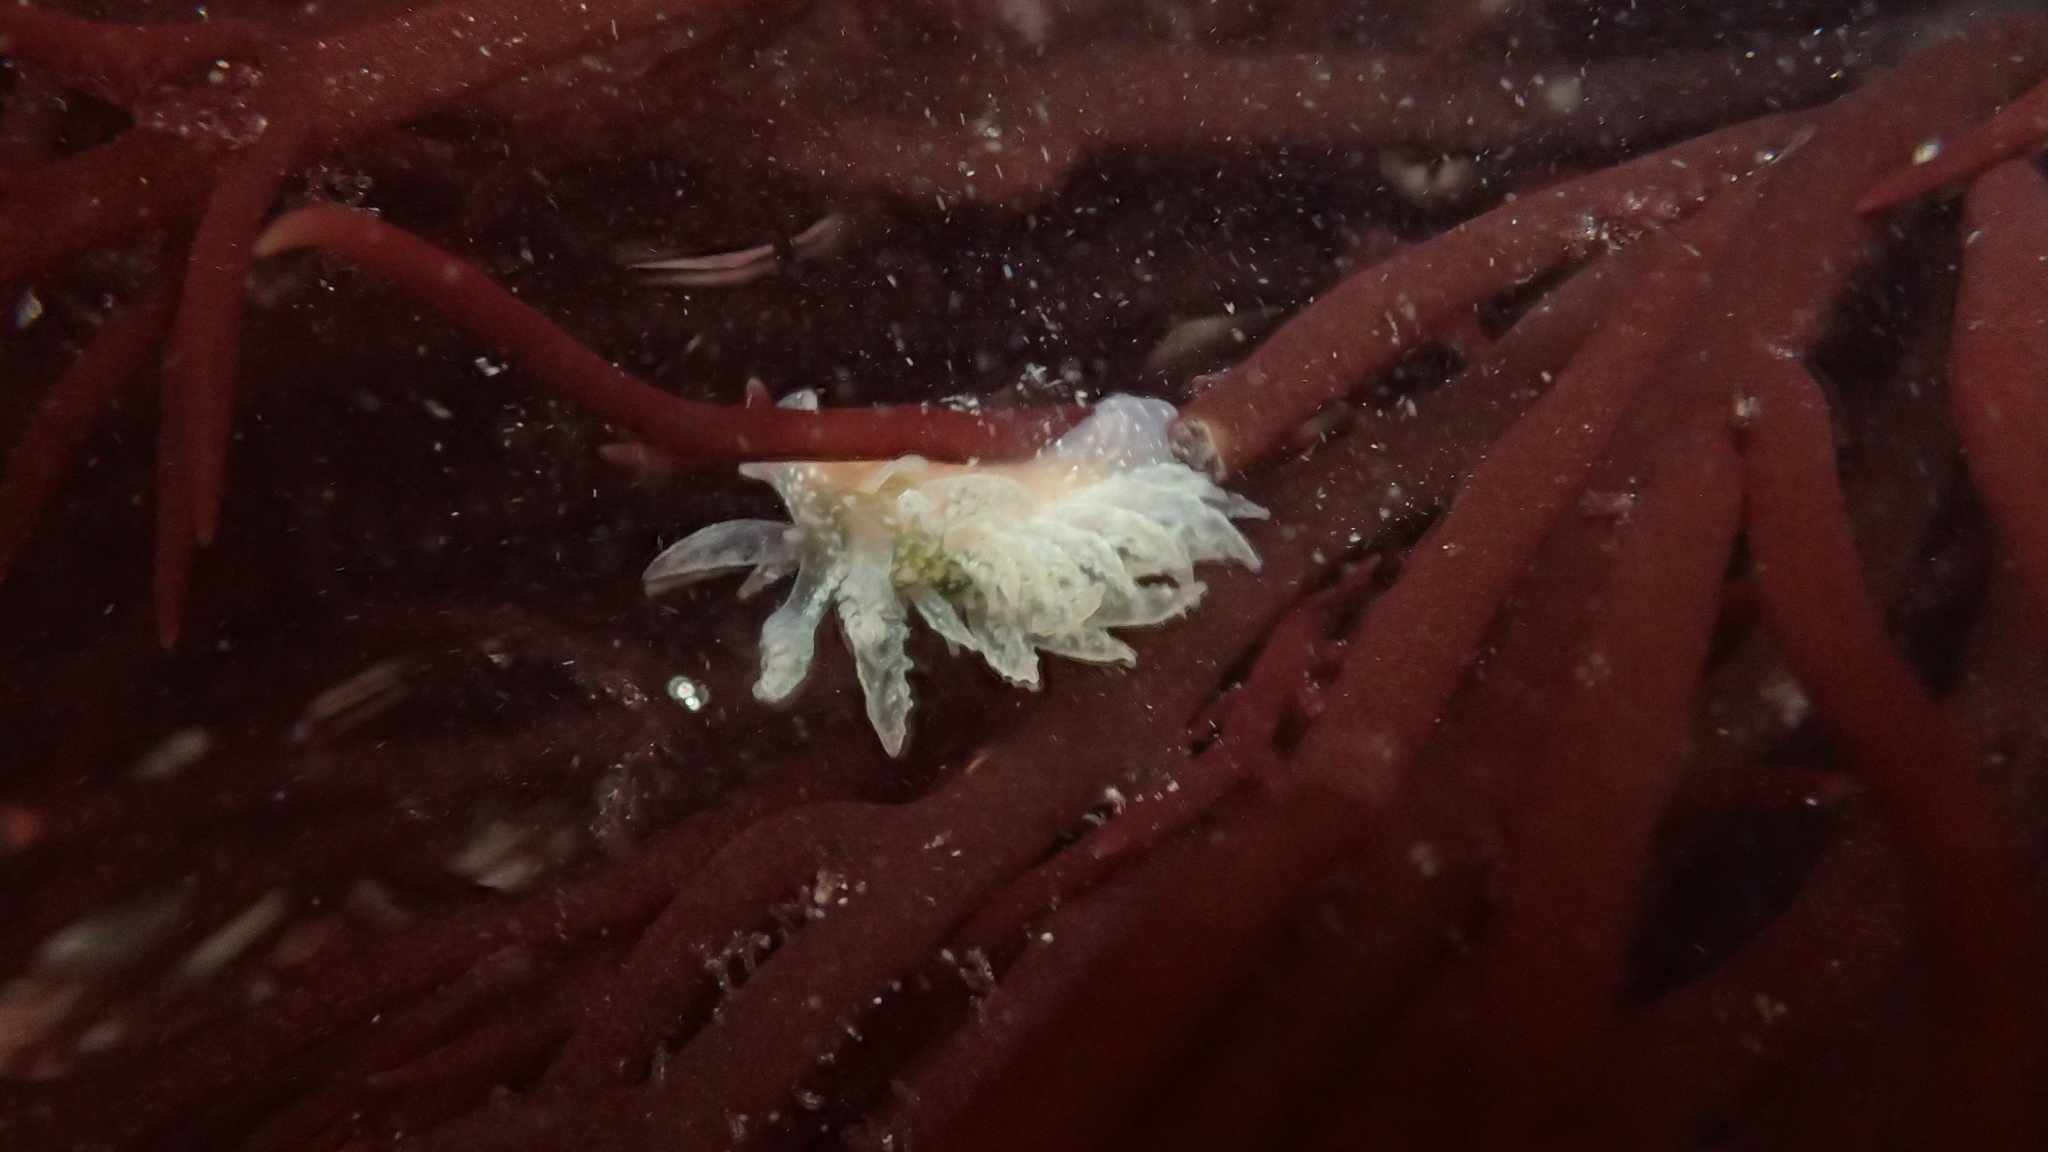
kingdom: Animalia
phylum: Mollusca
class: Gastropoda
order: Nudibranchia
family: Dironidae
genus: Dirona
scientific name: Dirona picta
